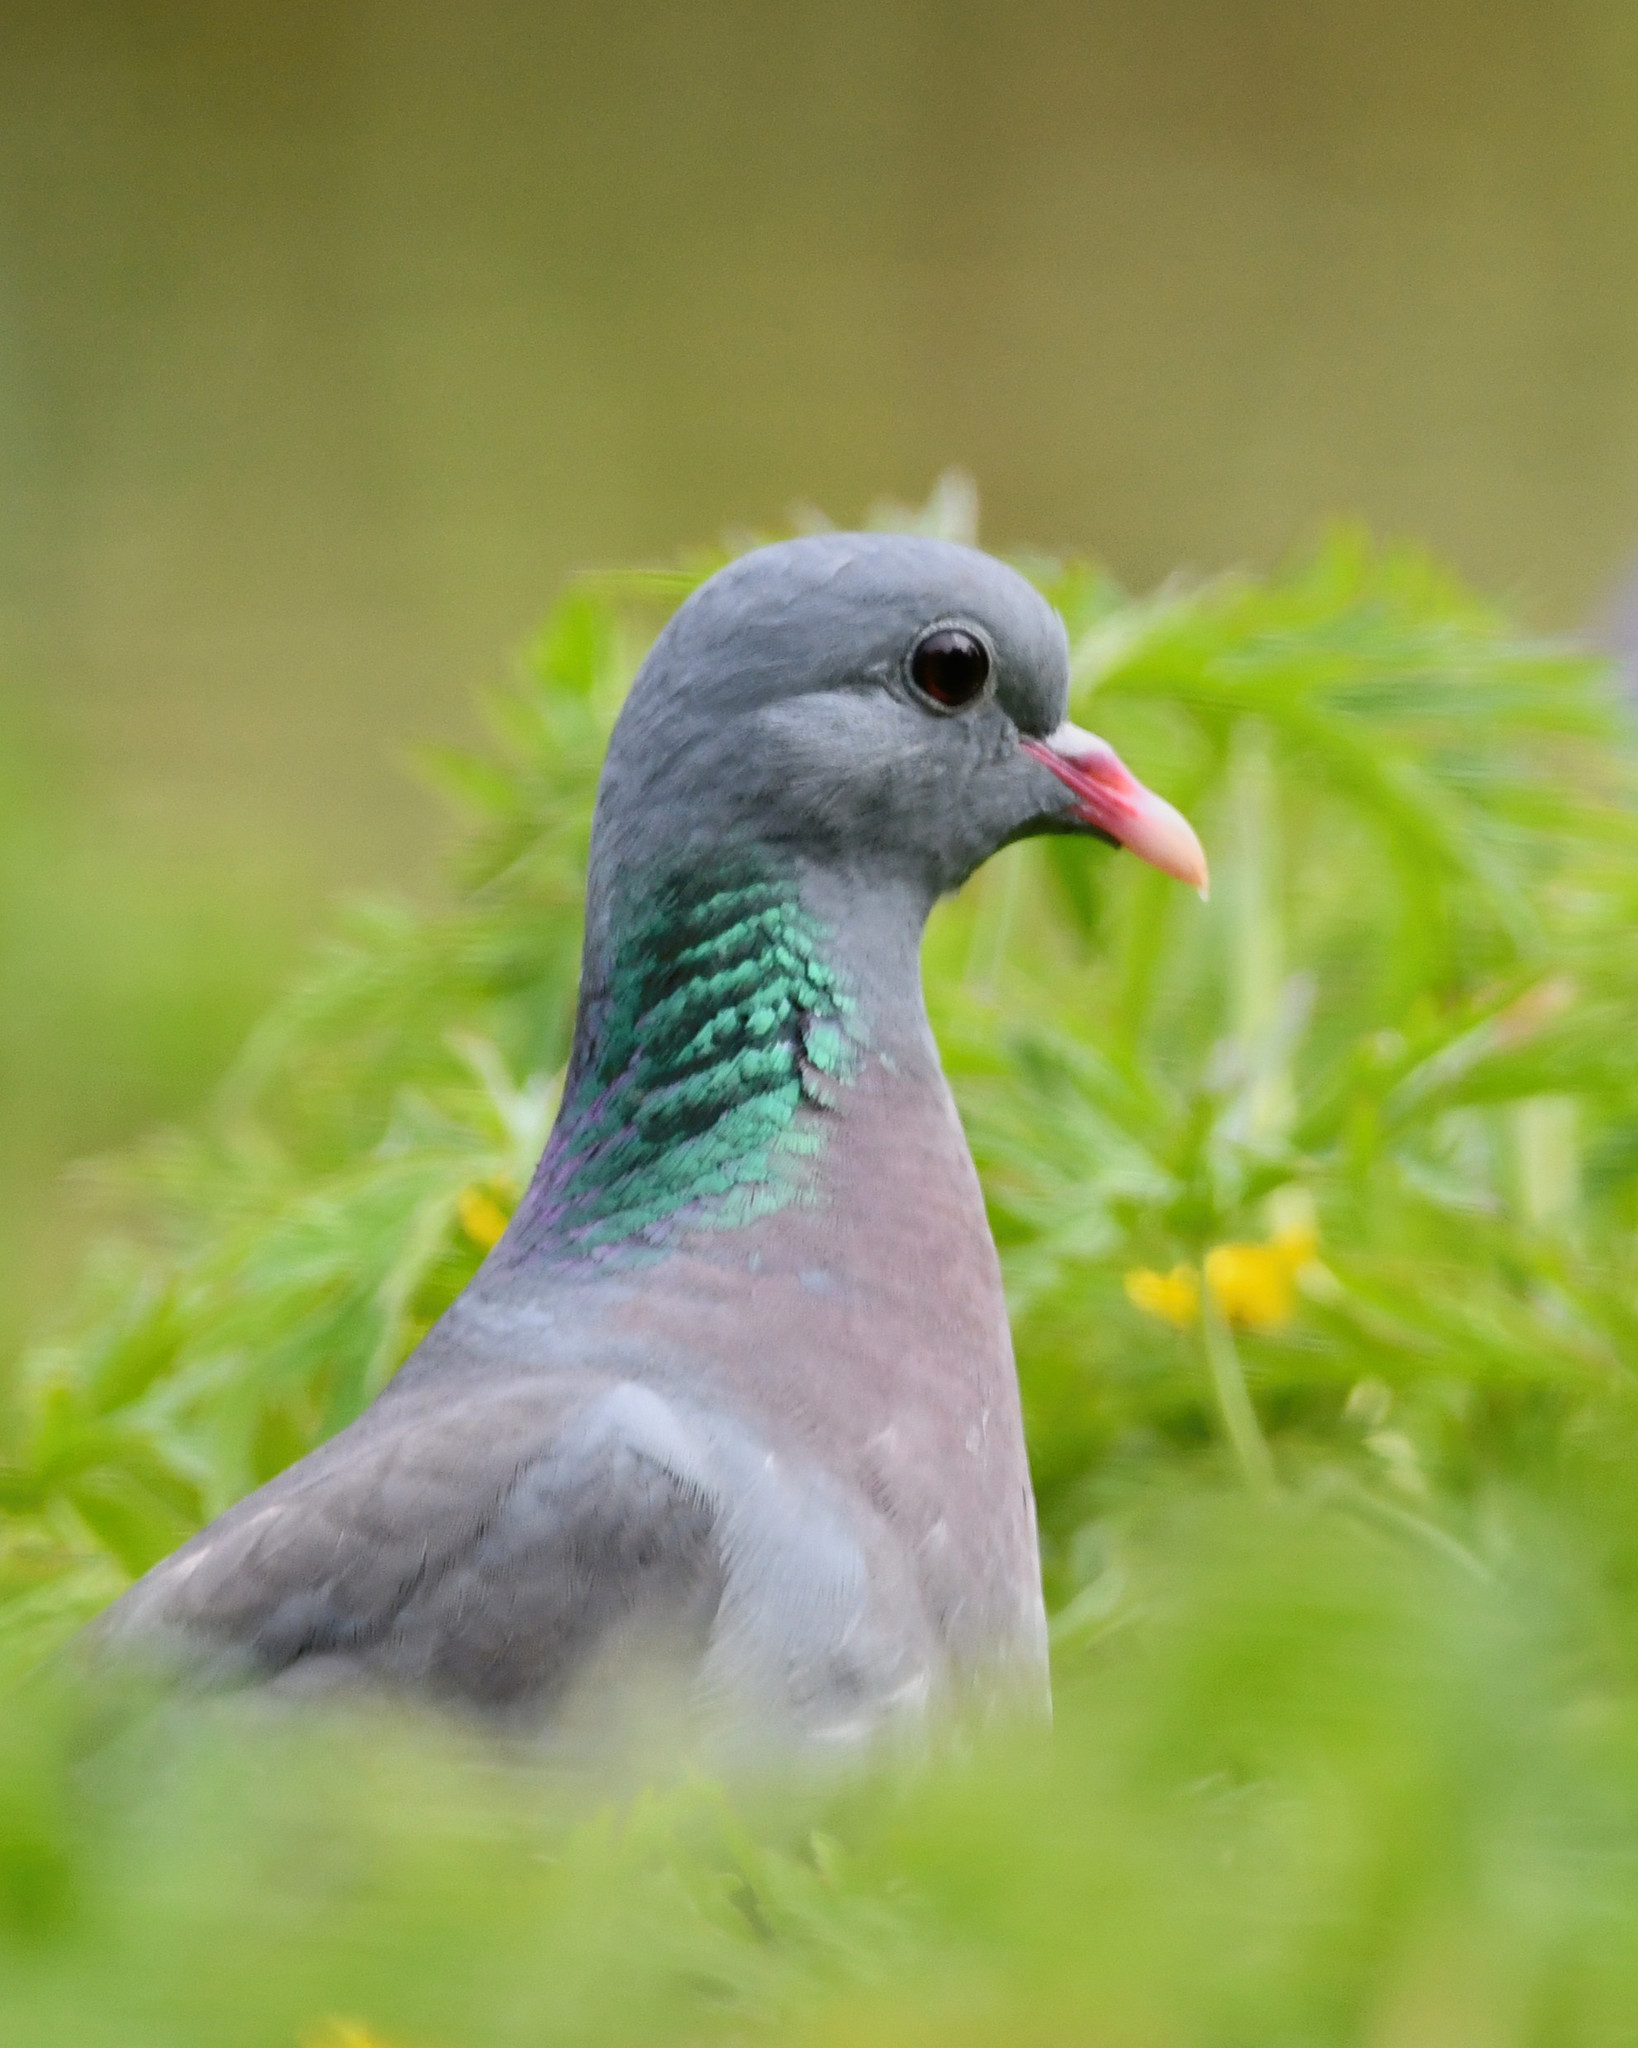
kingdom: Animalia
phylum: Chordata
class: Aves
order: Columbiformes
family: Columbidae
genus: Columba
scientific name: Columba oenas
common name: Stock dove
